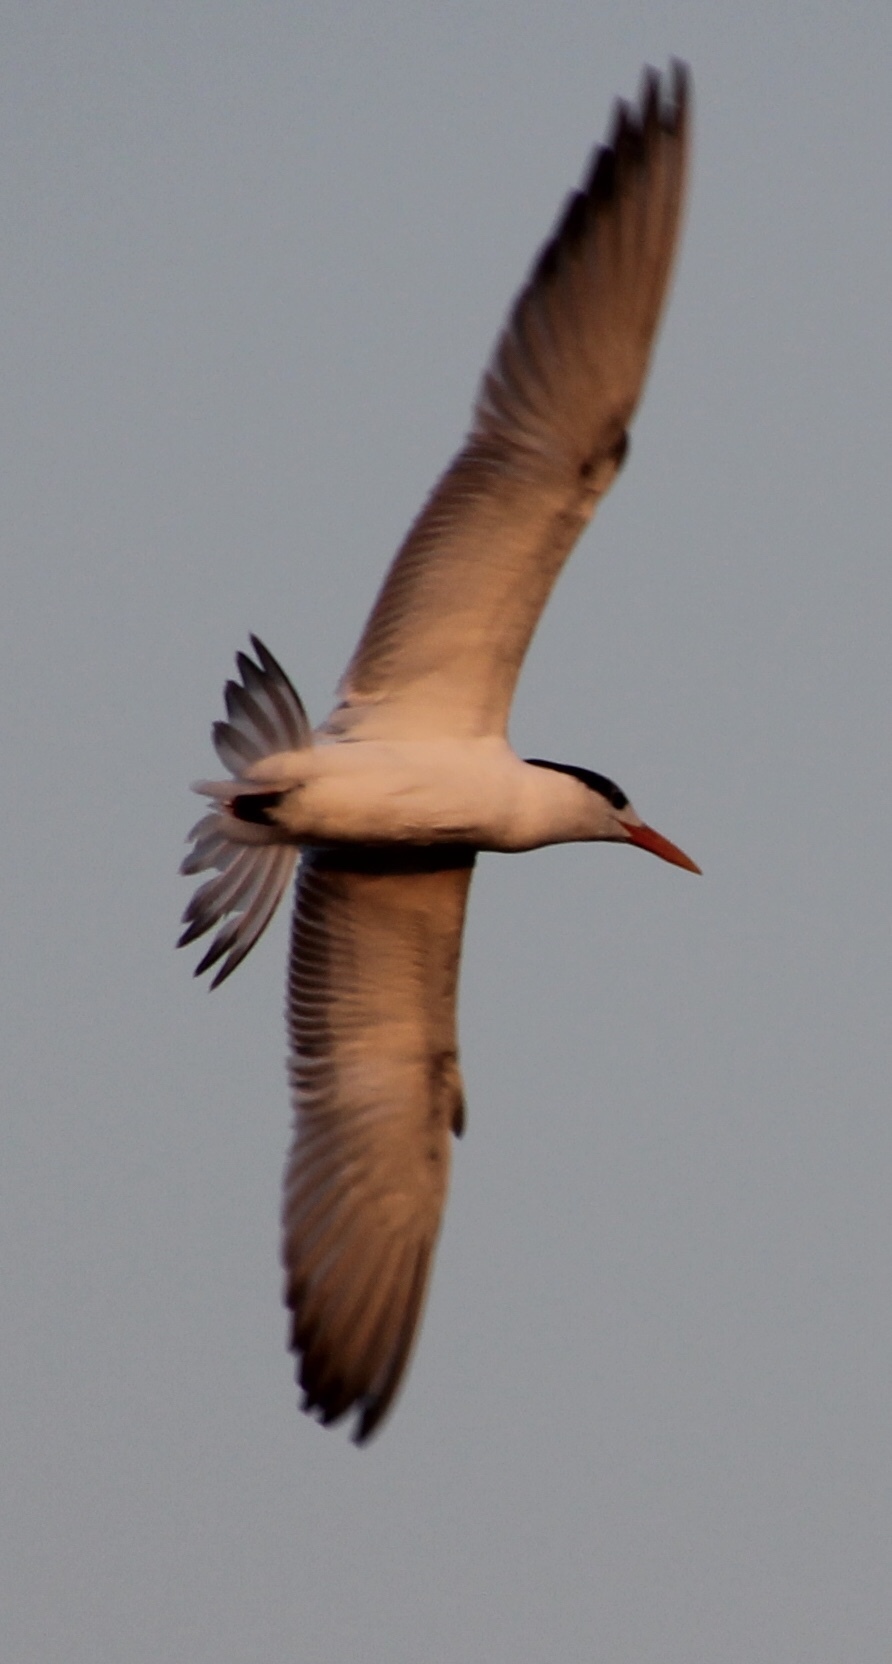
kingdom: Animalia
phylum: Chordata
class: Aves
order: Charadriiformes
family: Laridae
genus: Thalasseus
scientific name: Thalasseus maximus
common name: Royal tern
